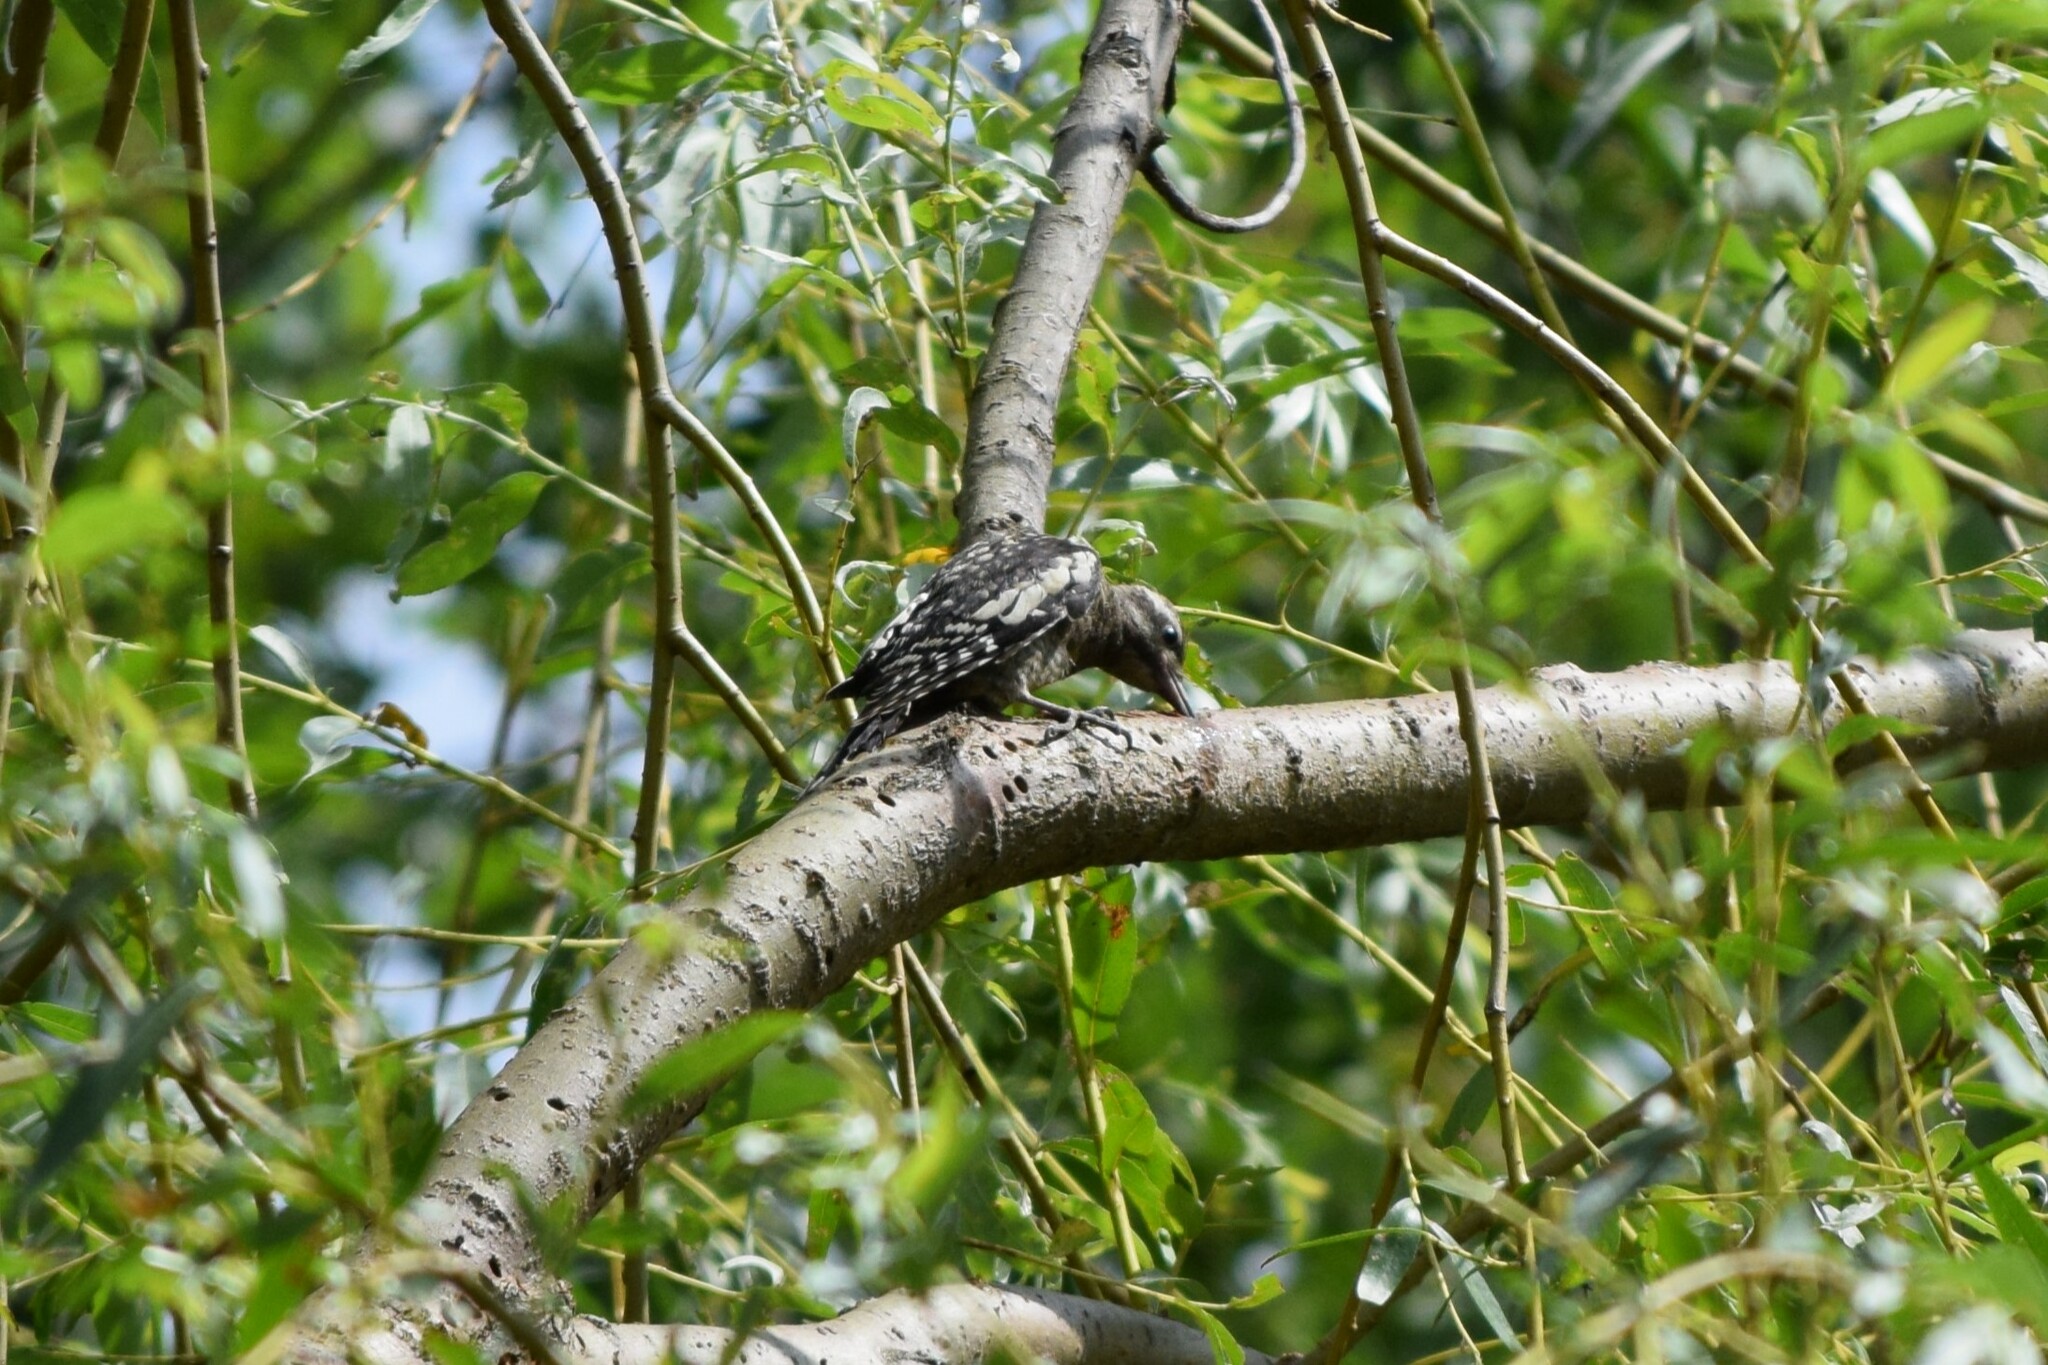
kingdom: Animalia
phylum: Chordata
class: Aves
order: Piciformes
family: Picidae
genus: Sphyrapicus
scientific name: Sphyrapicus varius
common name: Yellow-bellied sapsucker
